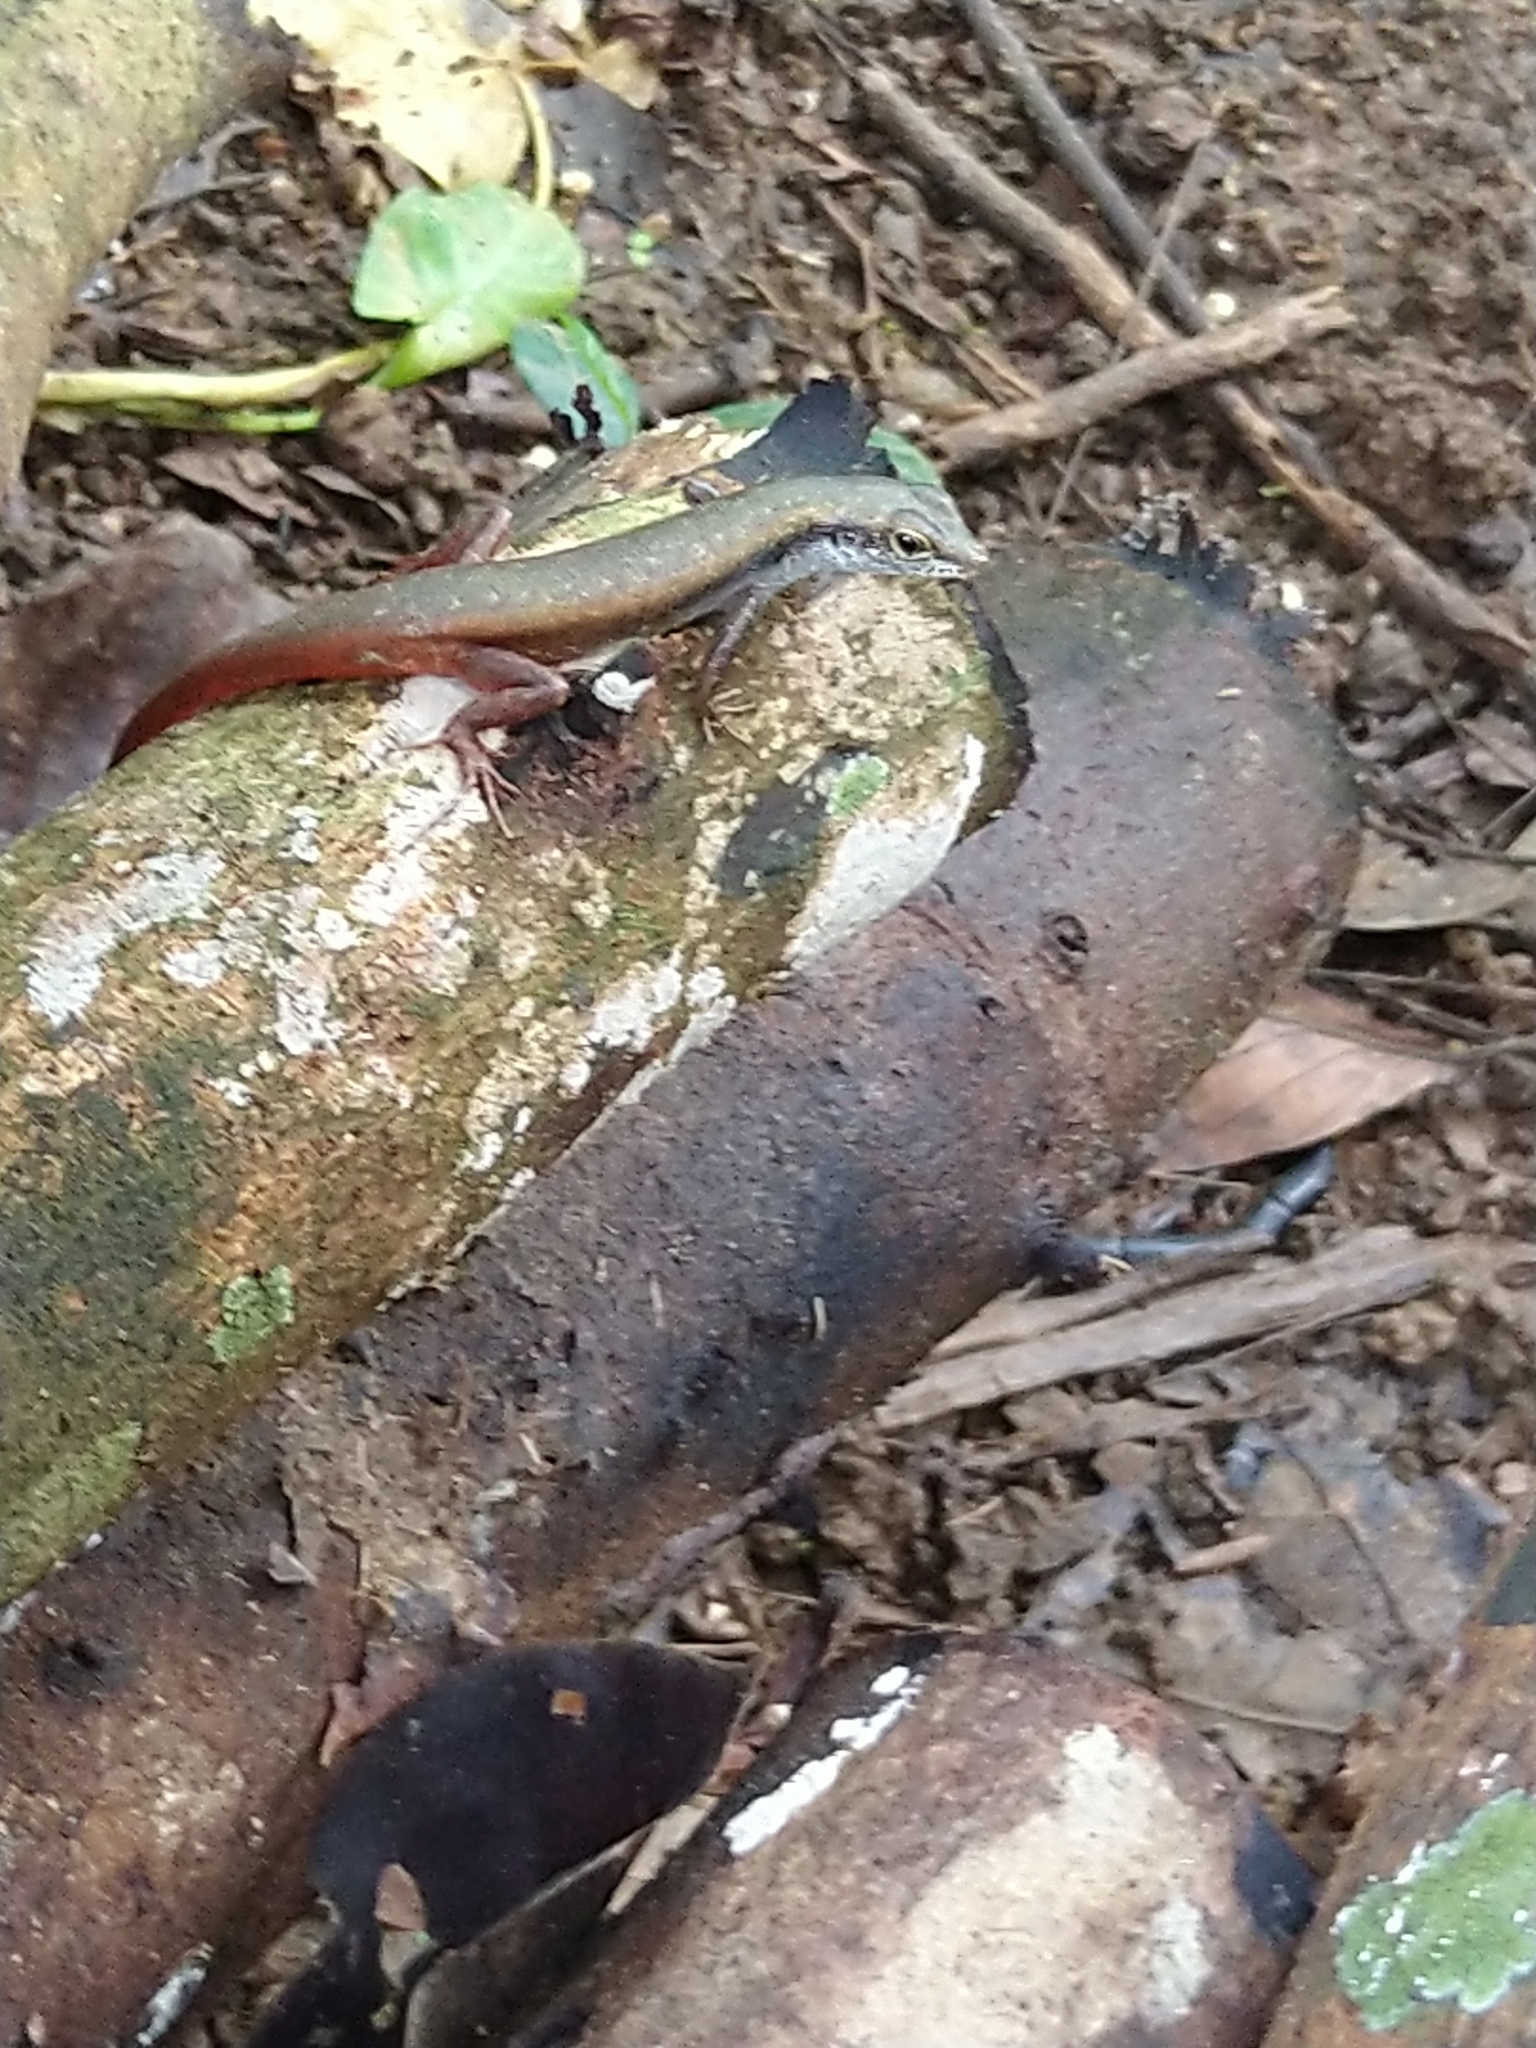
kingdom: Animalia
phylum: Chordata
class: Squamata
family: Scincidae
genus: Sphenomorphus
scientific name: Sphenomorphus dussumieri
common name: Dussumier's forest skink
